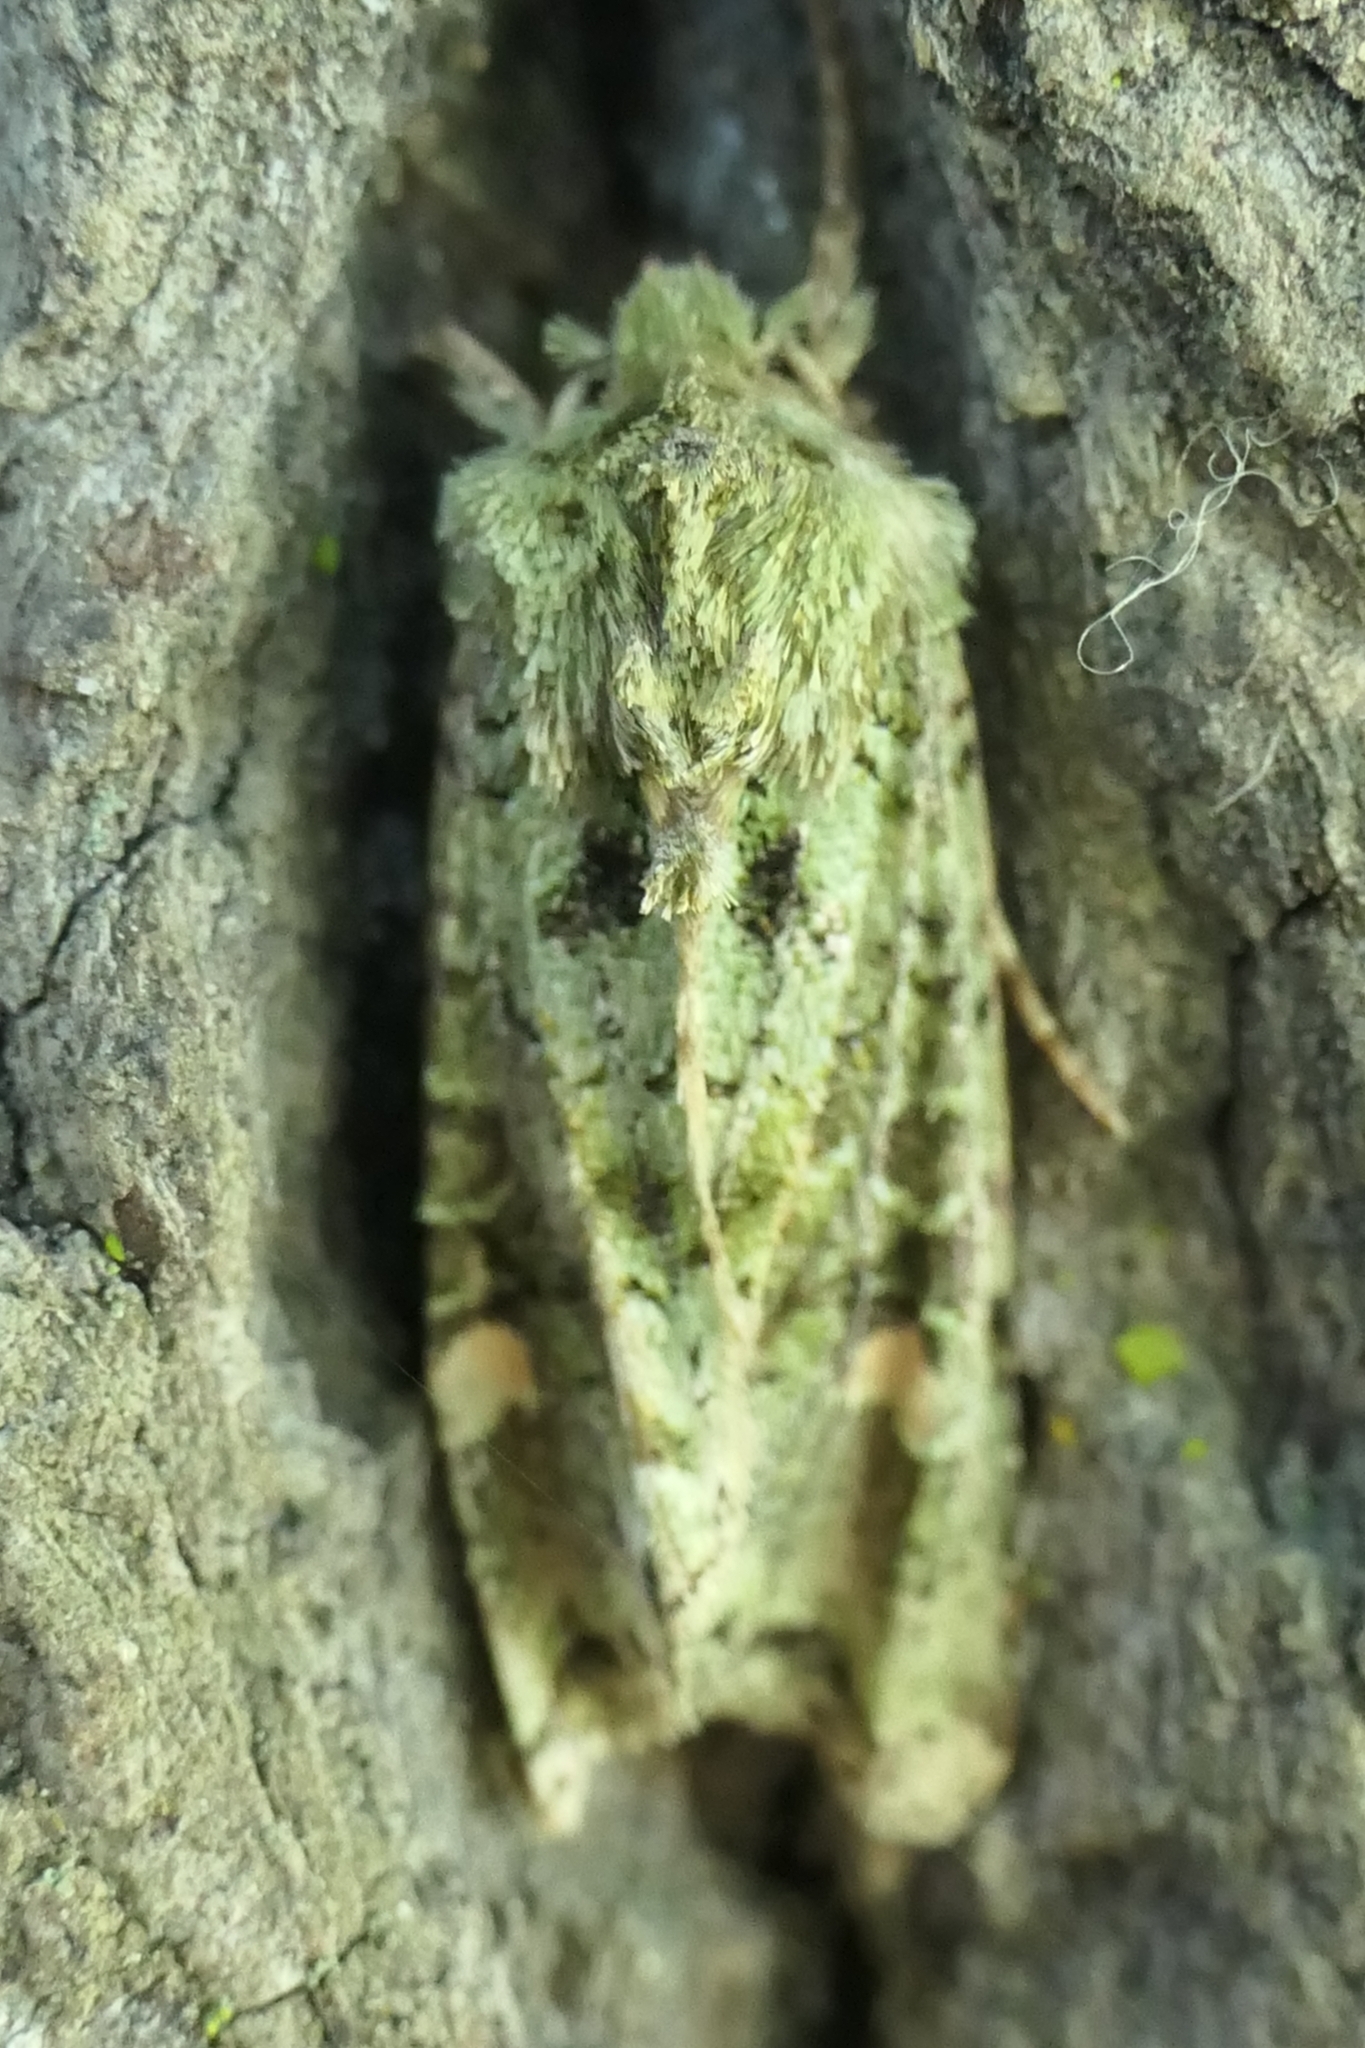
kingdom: Animalia
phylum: Arthropoda
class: Insecta
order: Lepidoptera
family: Noctuidae
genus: Ichneutica
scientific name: Ichneutica
